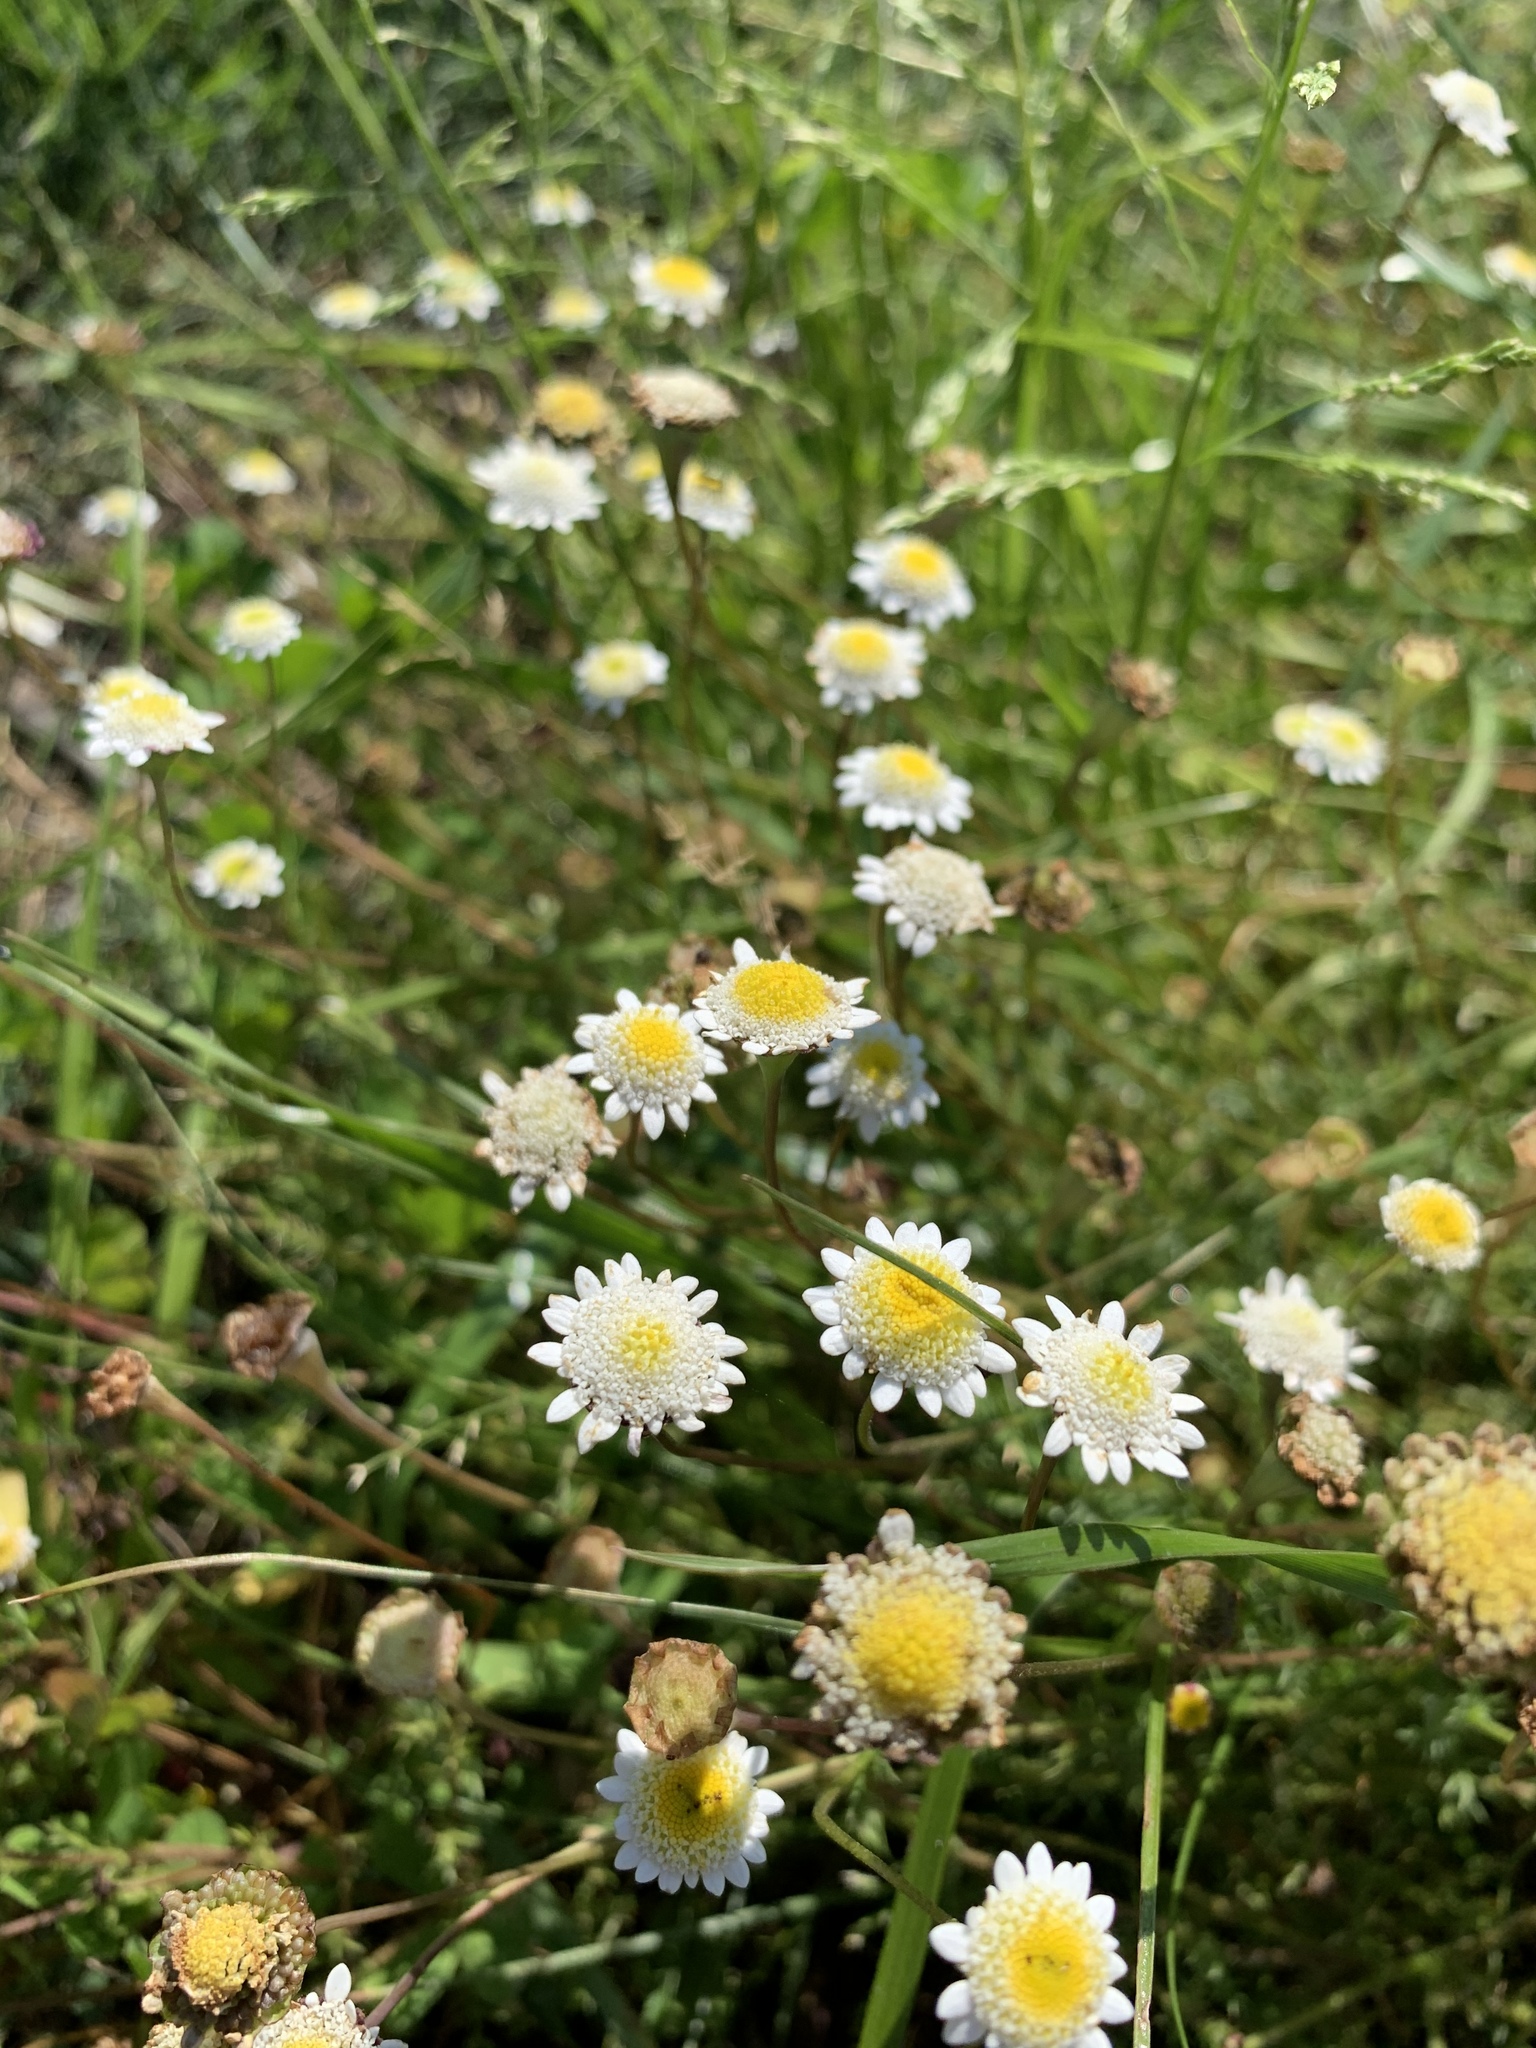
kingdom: Plantae
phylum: Tracheophyta
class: Magnoliopsida
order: Asterales
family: Asteraceae
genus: Cotula
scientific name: Cotula turbinata
